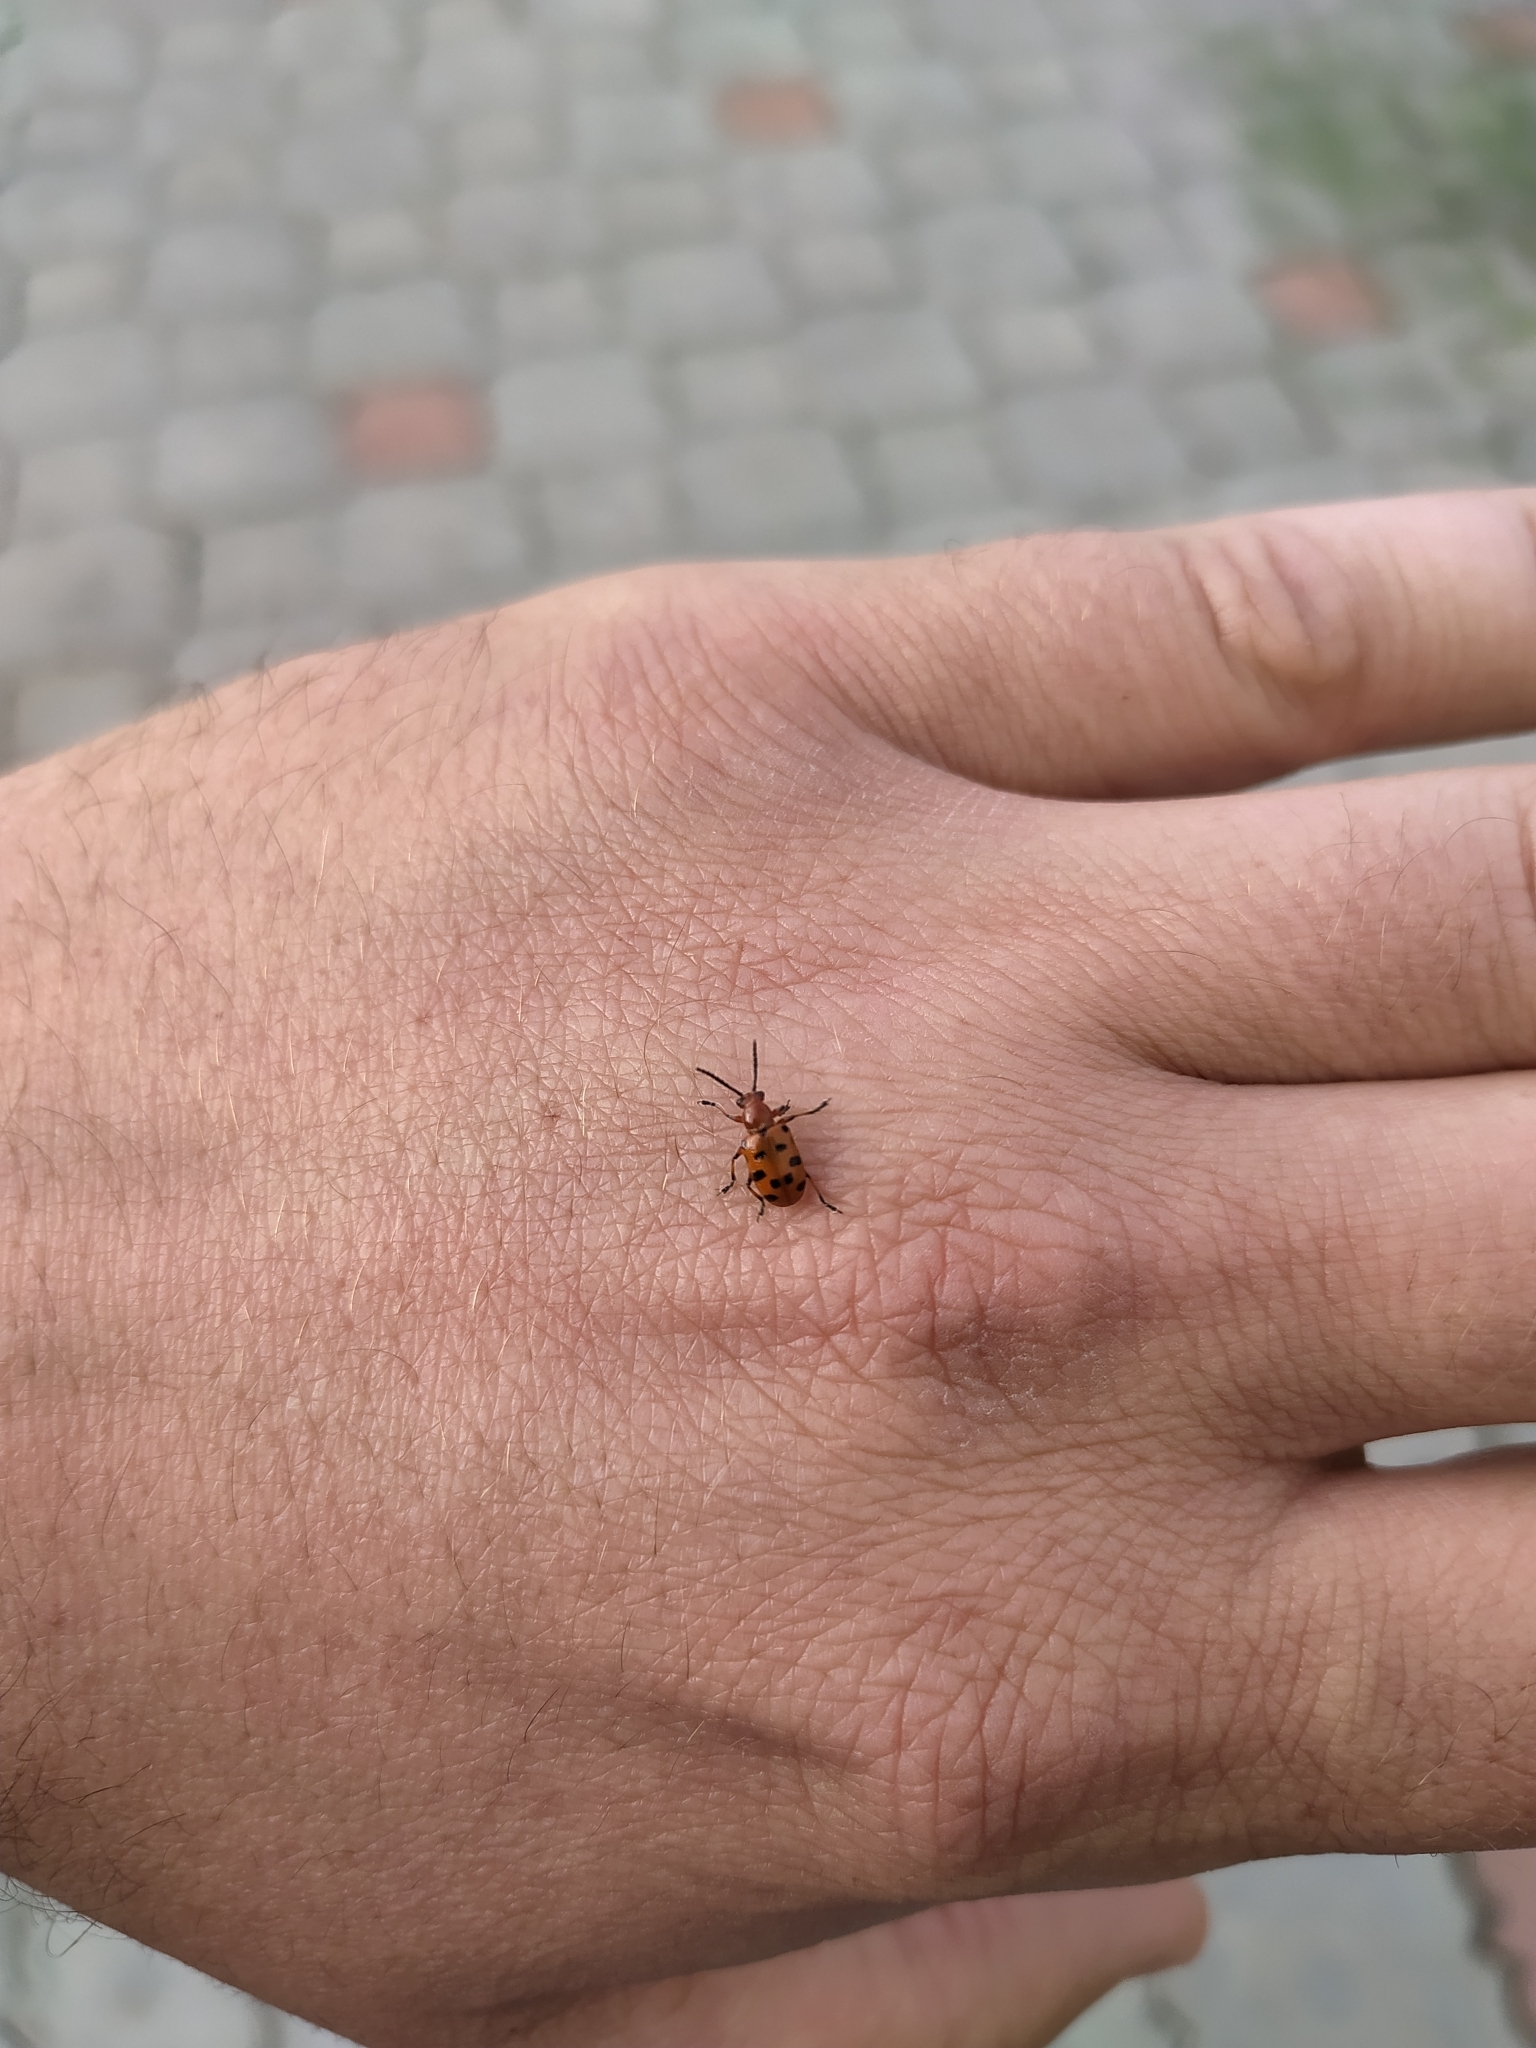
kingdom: Animalia
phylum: Arthropoda
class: Insecta
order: Coleoptera
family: Chrysomelidae
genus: Crioceris
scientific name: Crioceris duodecimpunctata
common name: Twelve-spotted asparagus beetle
